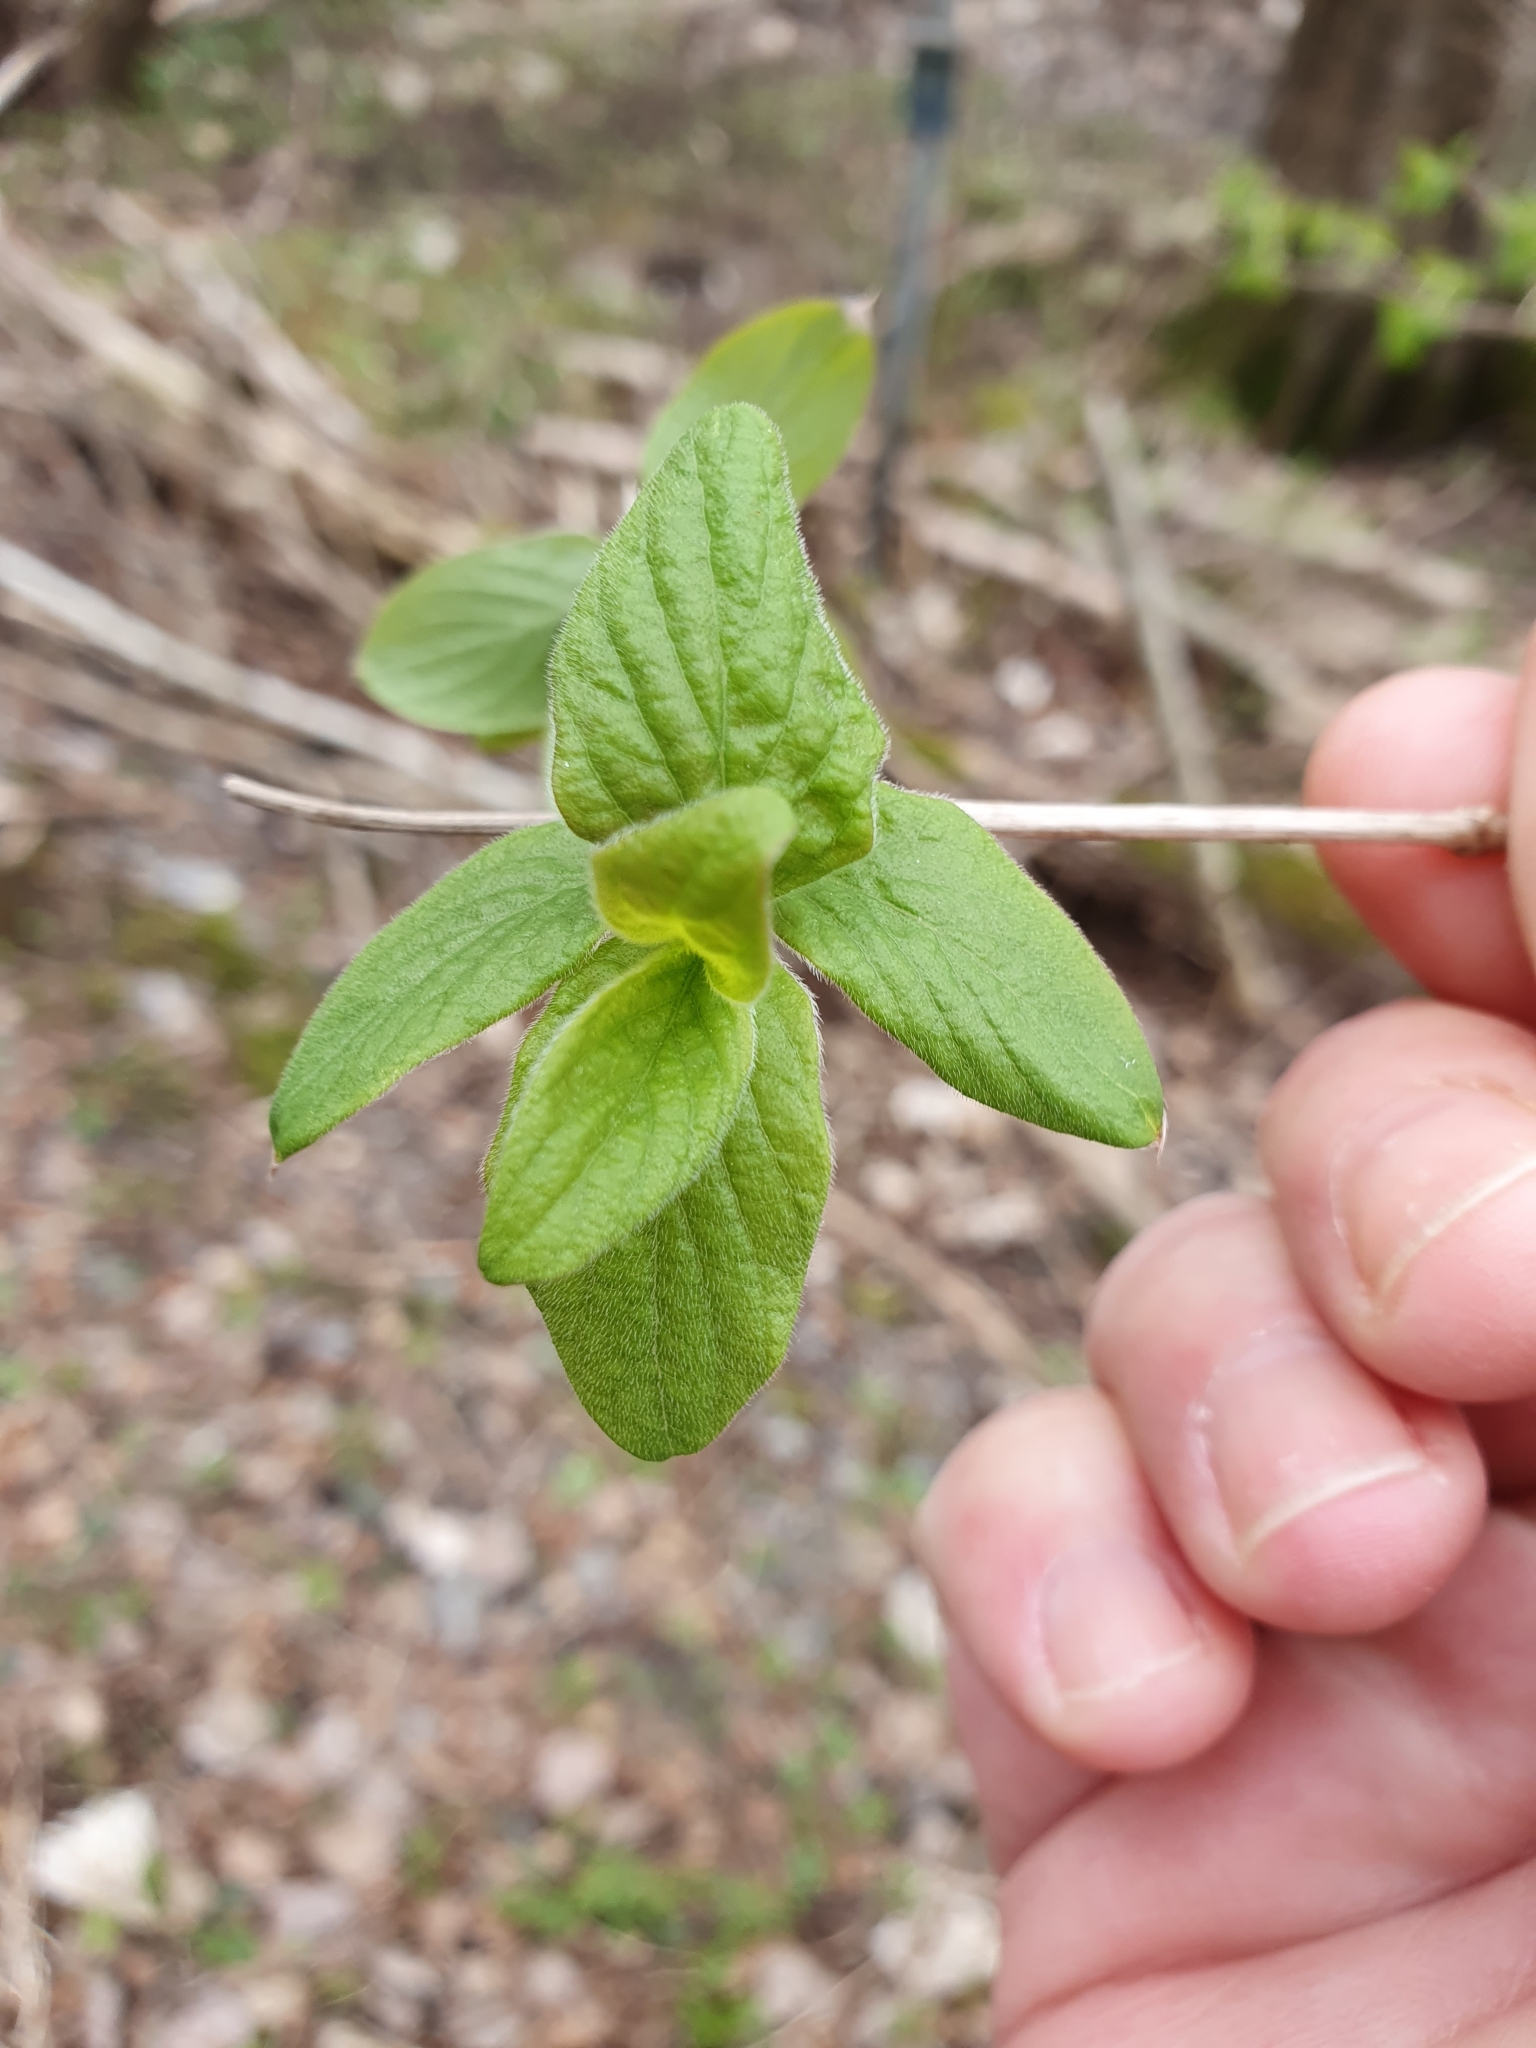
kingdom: Plantae
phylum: Tracheophyta
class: Magnoliopsida
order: Dipsacales
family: Caprifoliaceae
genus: Lonicera
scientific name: Lonicera xylosteum
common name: Fly honeysuckle
